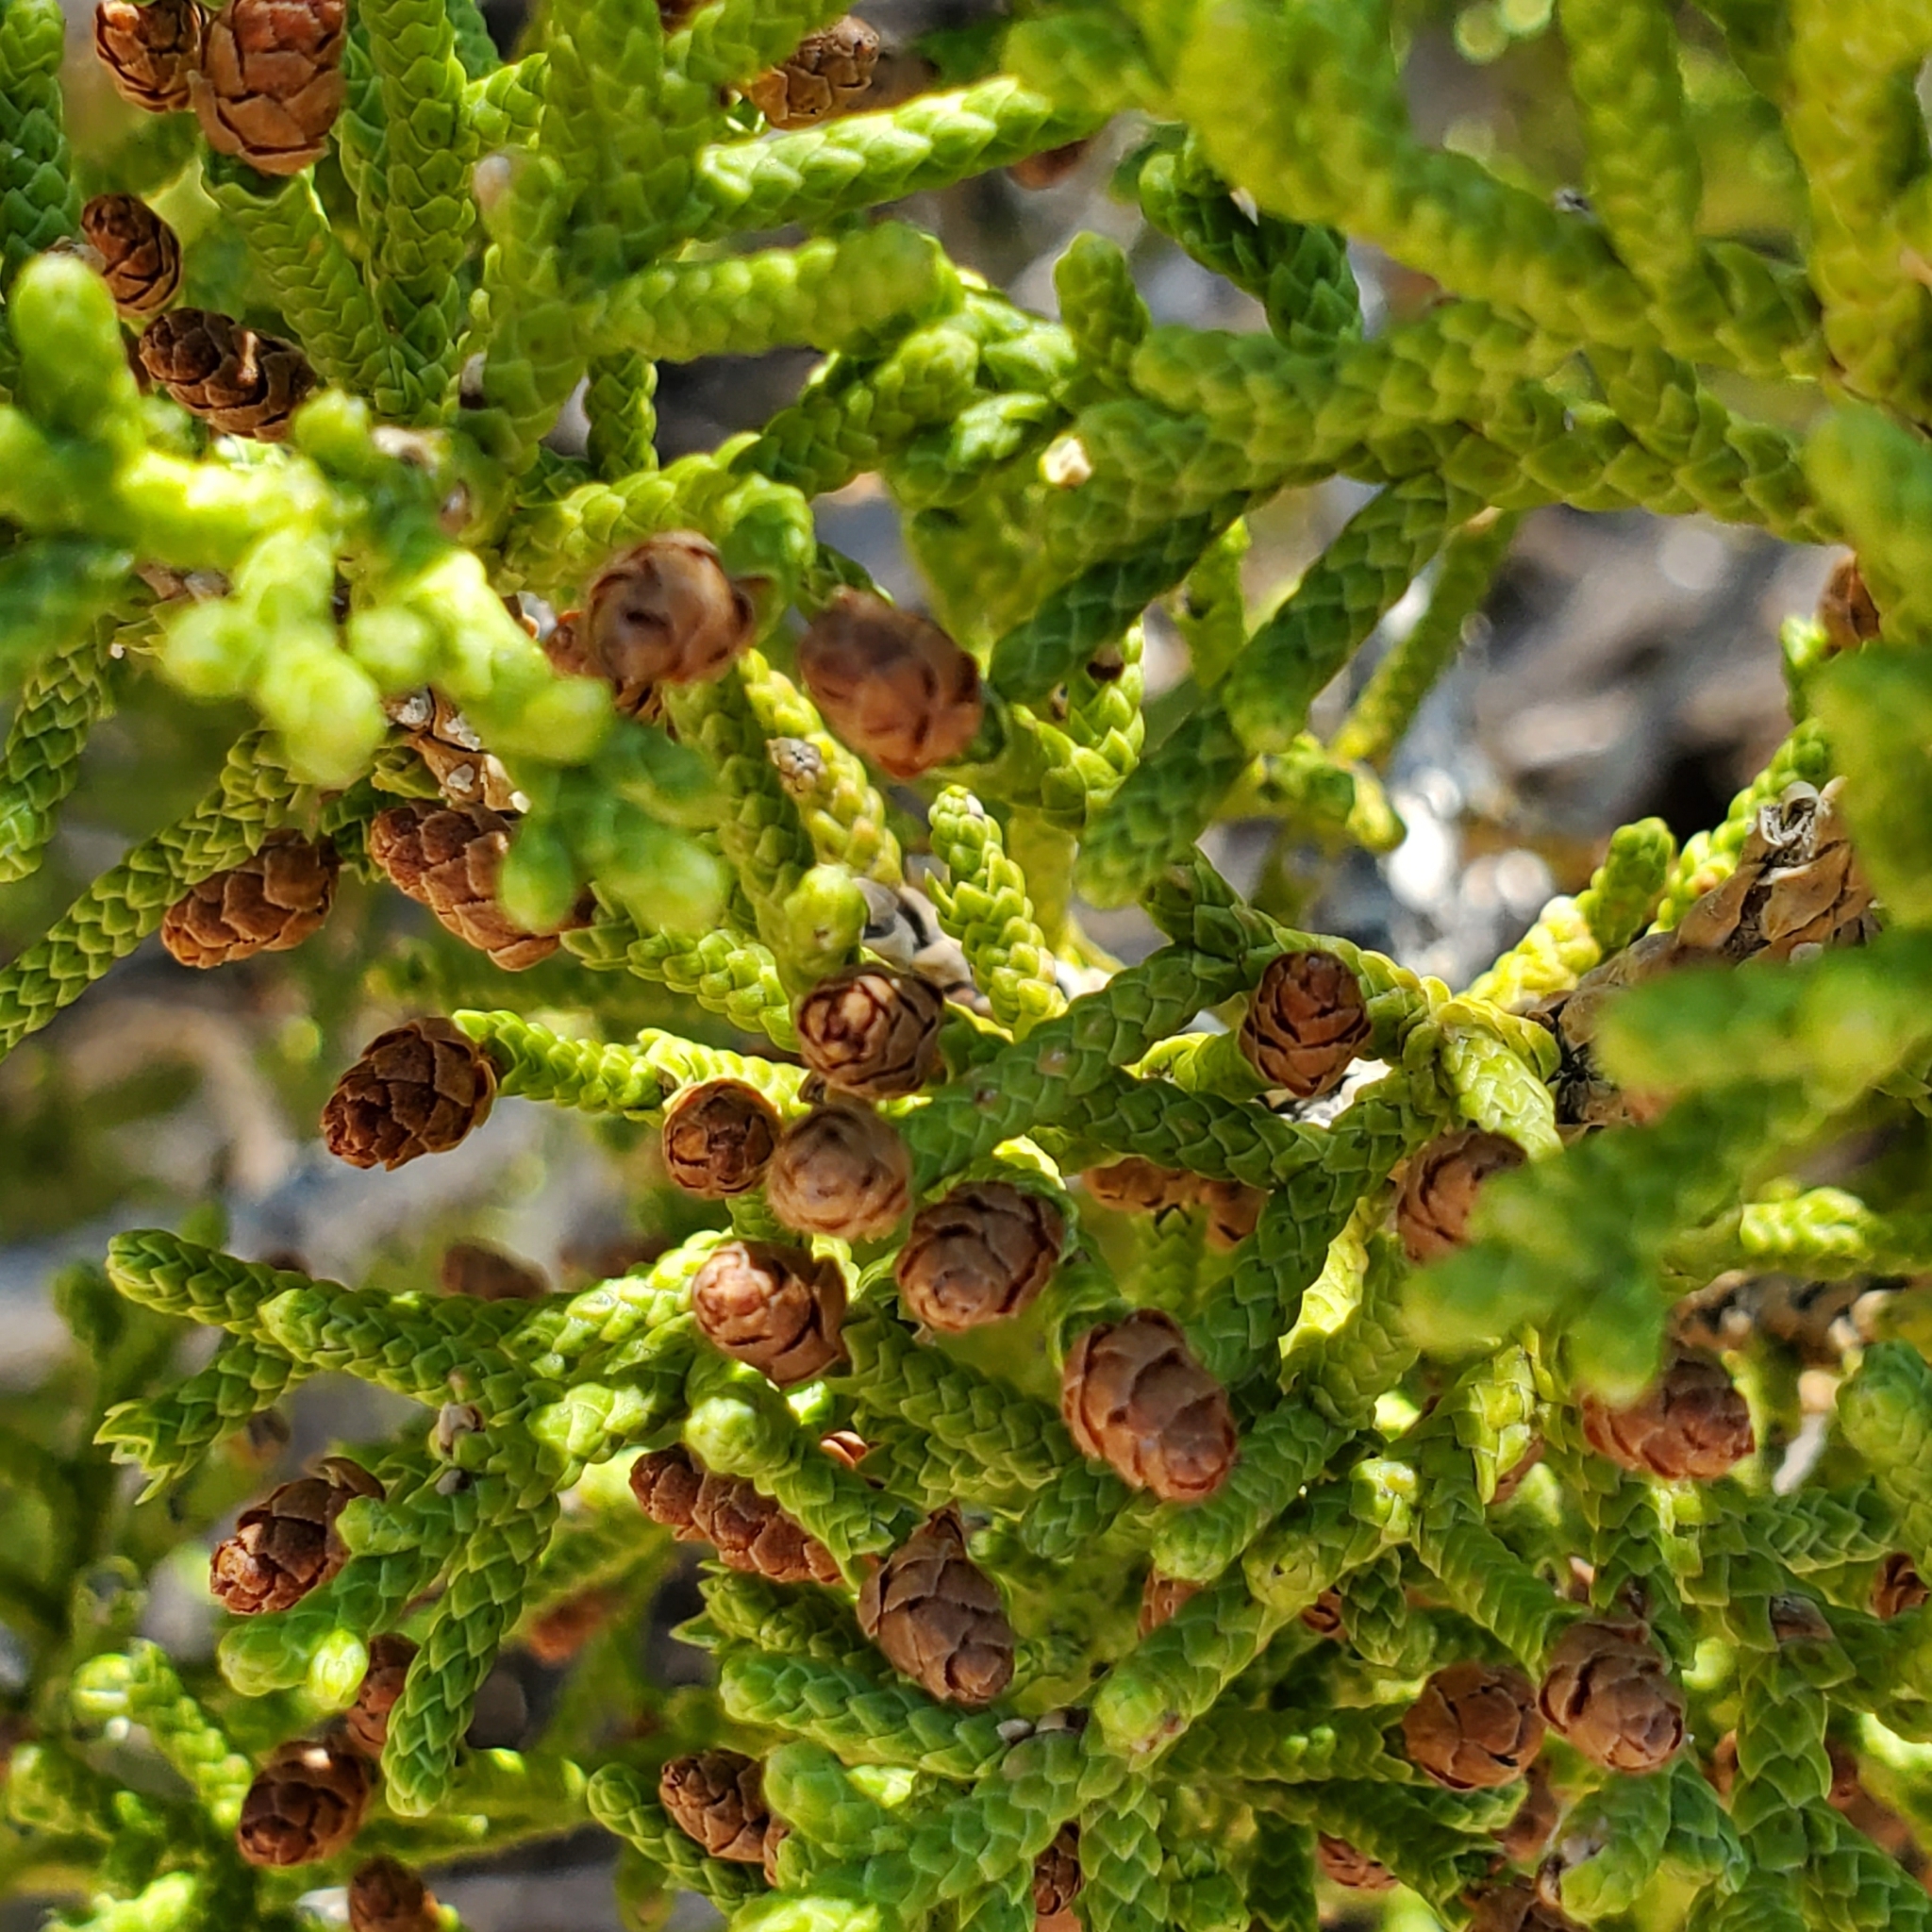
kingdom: Plantae
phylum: Tracheophyta
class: Pinopsida
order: Pinales
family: Cupressaceae
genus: Juniperus
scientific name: Juniperus californica
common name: California juniper
